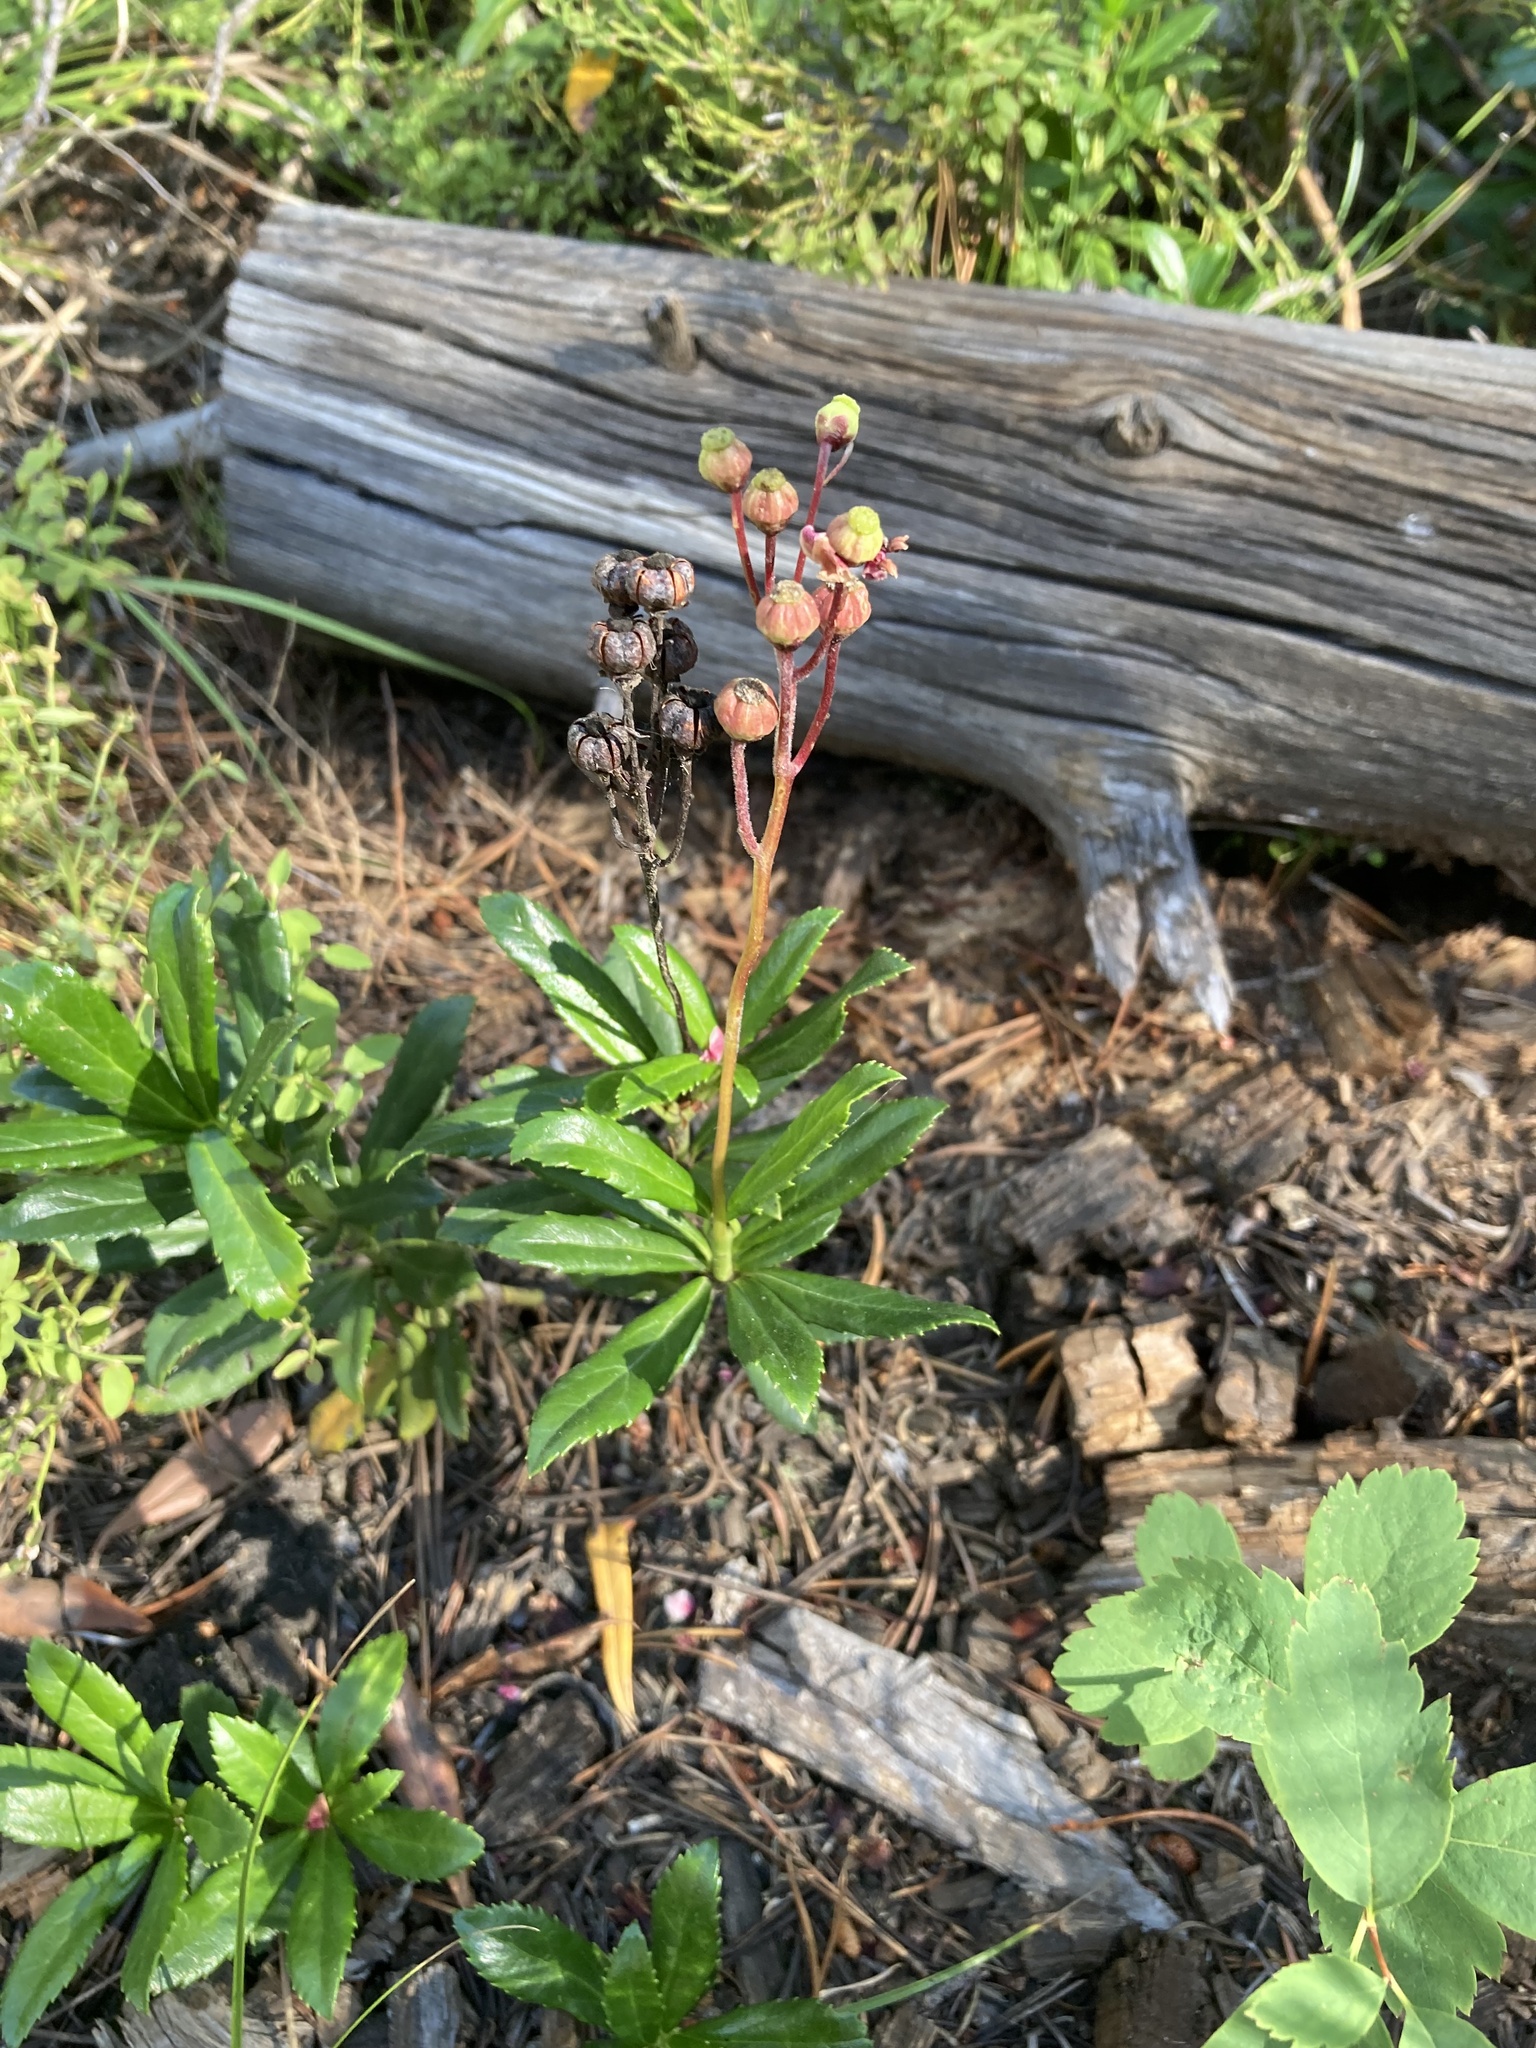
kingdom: Plantae
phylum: Tracheophyta
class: Magnoliopsida
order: Ericales
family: Ericaceae
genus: Chimaphila
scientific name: Chimaphila umbellata
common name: Pipsissewa
